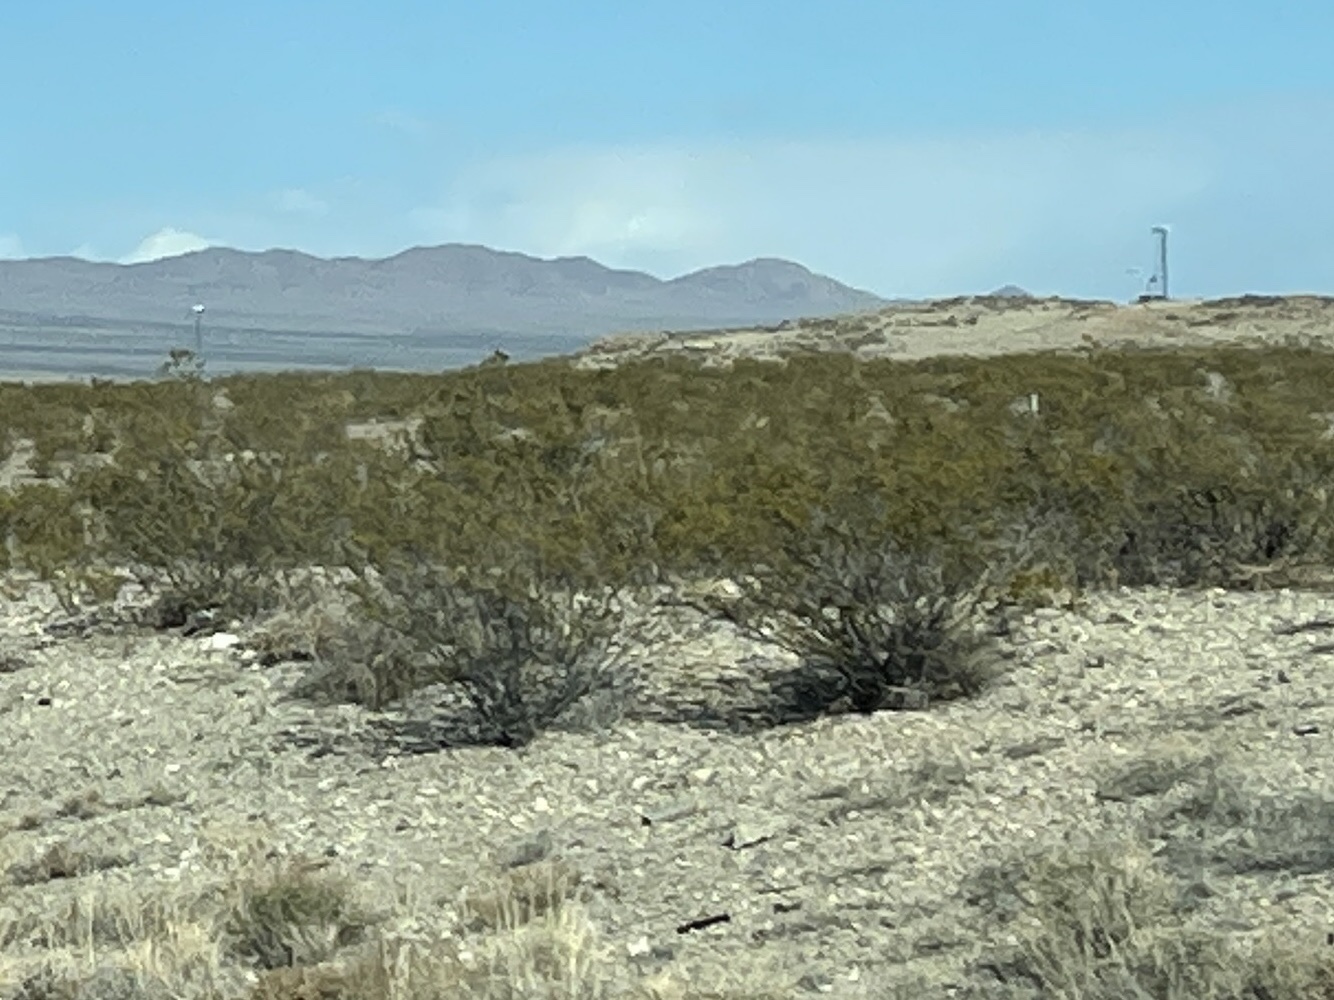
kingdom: Plantae
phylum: Tracheophyta
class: Magnoliopsida
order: Zygophyllales
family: Zygophyllaceae
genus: Larrea
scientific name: Larrea tridentata
